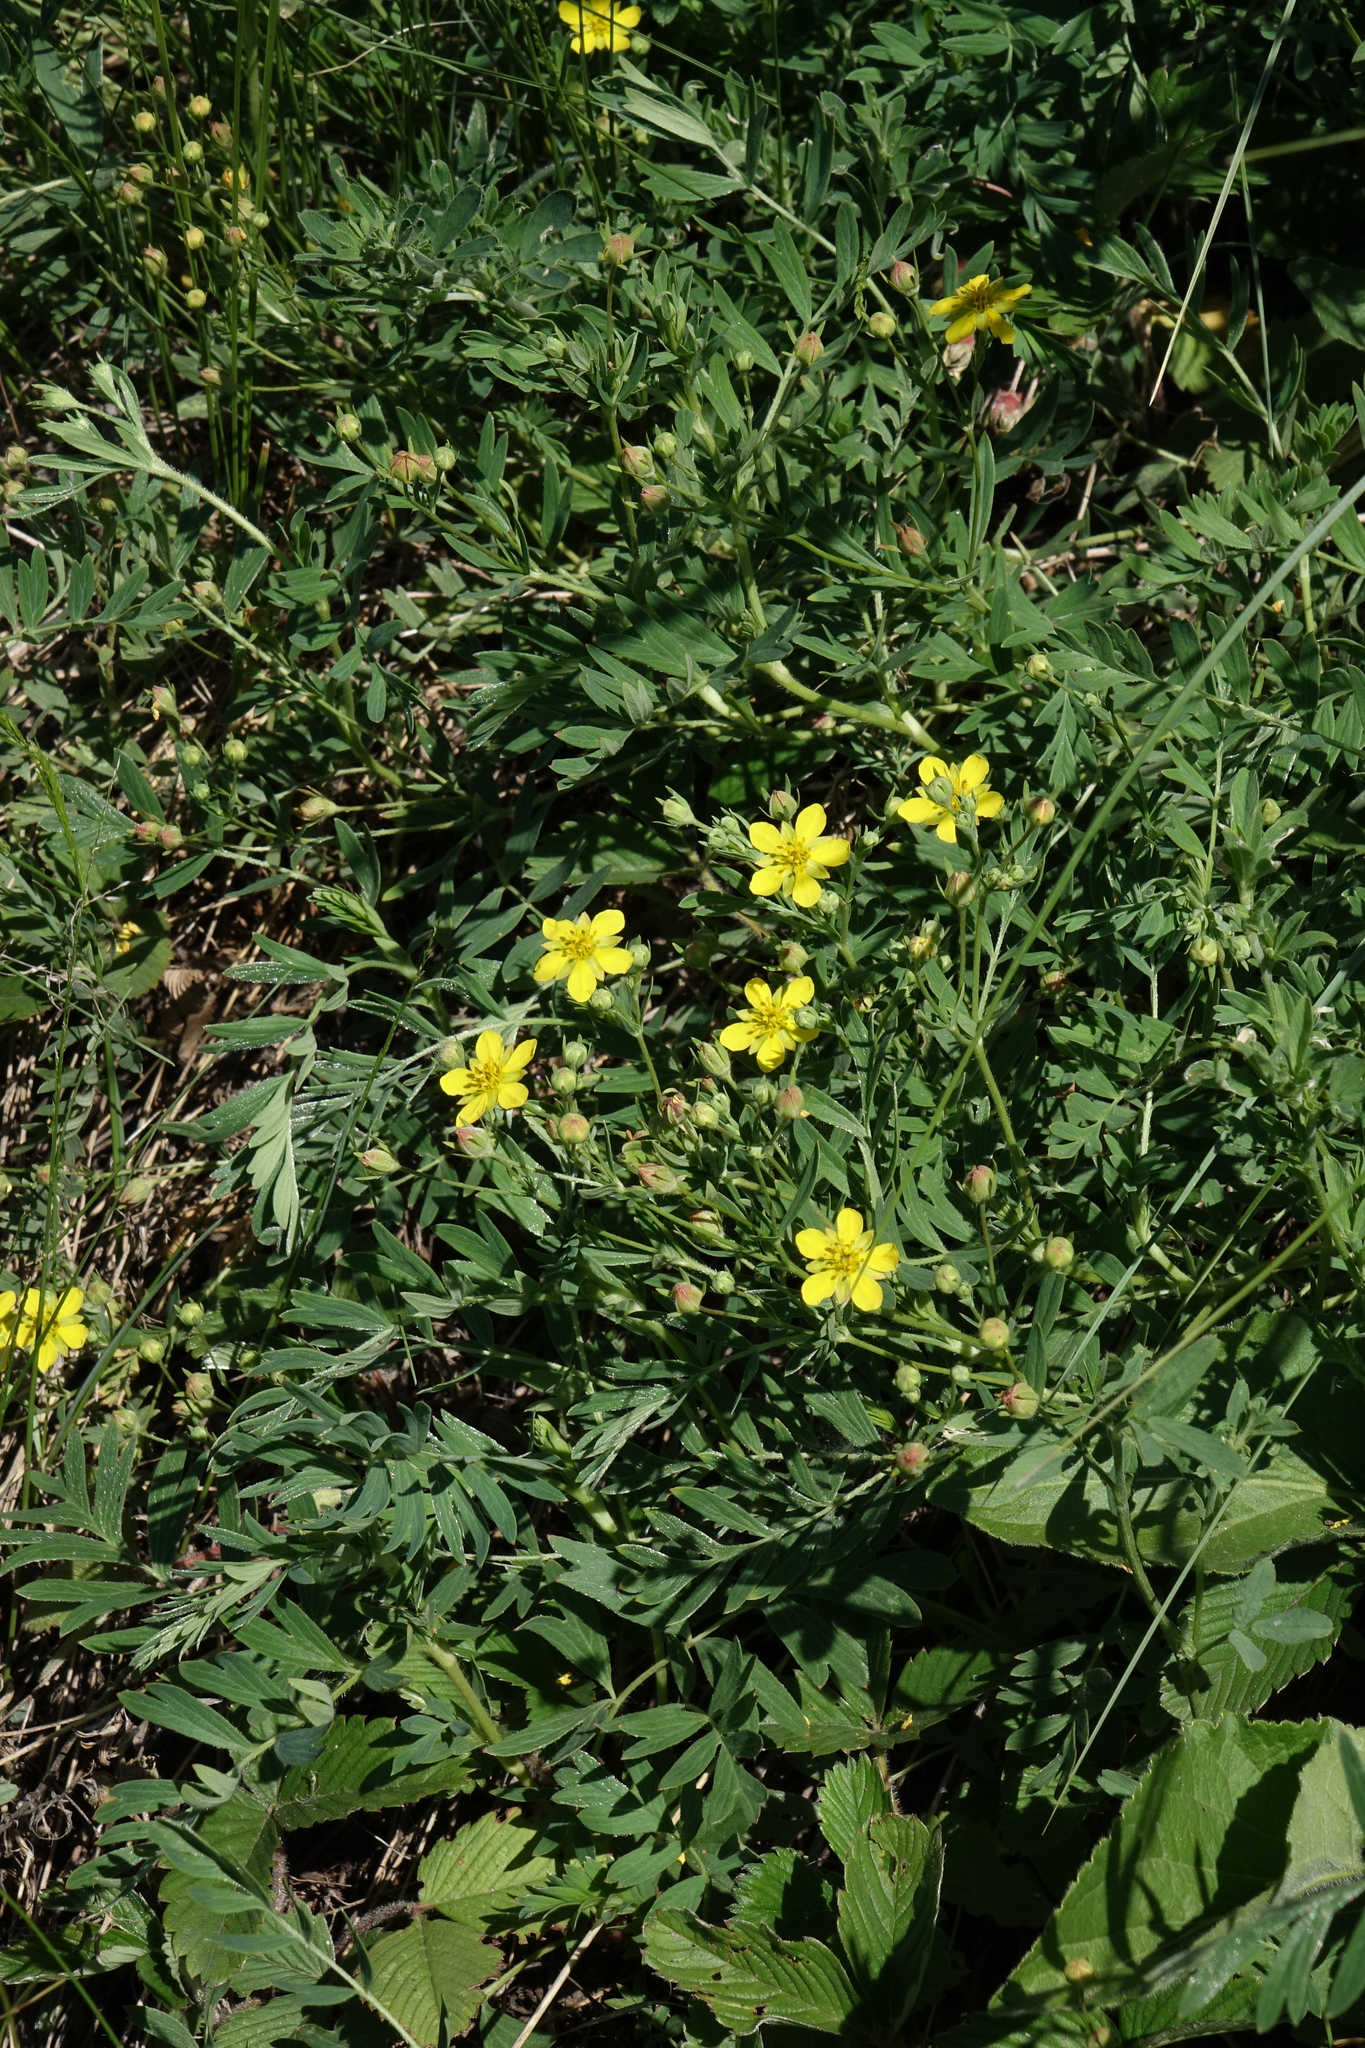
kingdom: Plantae
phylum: Tracheophyta
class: Magnoliopsida
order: Rosales
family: Rosaceae
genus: Sibbaldianthe
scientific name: Sibbaldianthe bifurca
